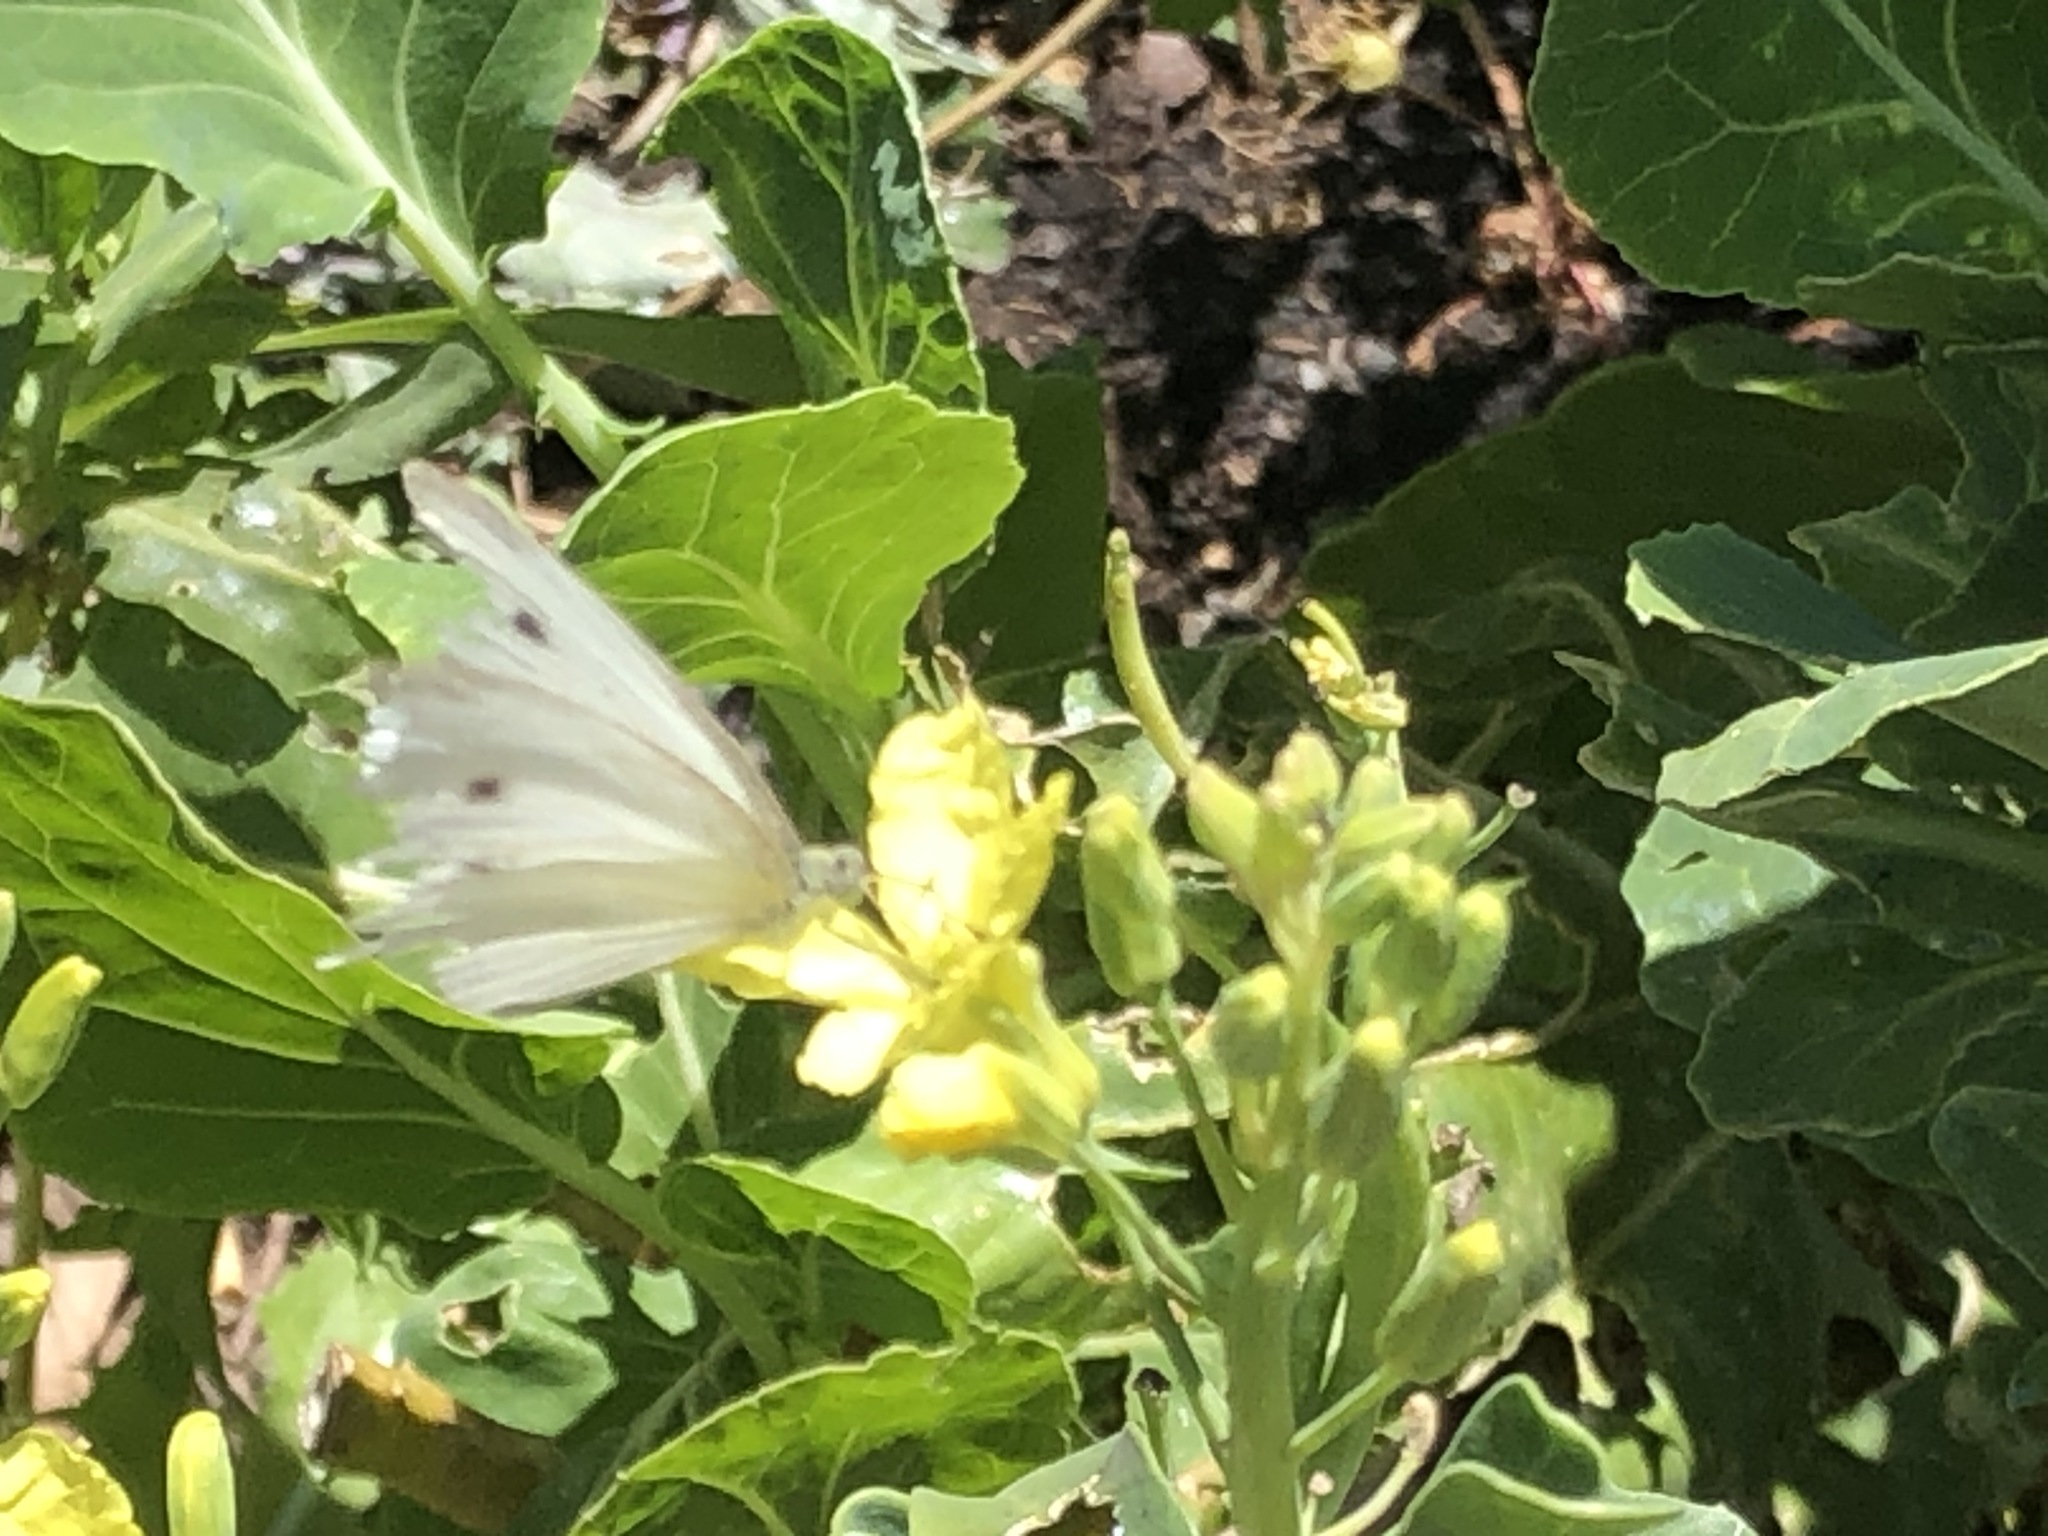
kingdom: Animalia
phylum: Arthropoda
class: Insecta
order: Lepidoptera
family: Pieridae
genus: Pieris
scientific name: Pieris rapae
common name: Small white
